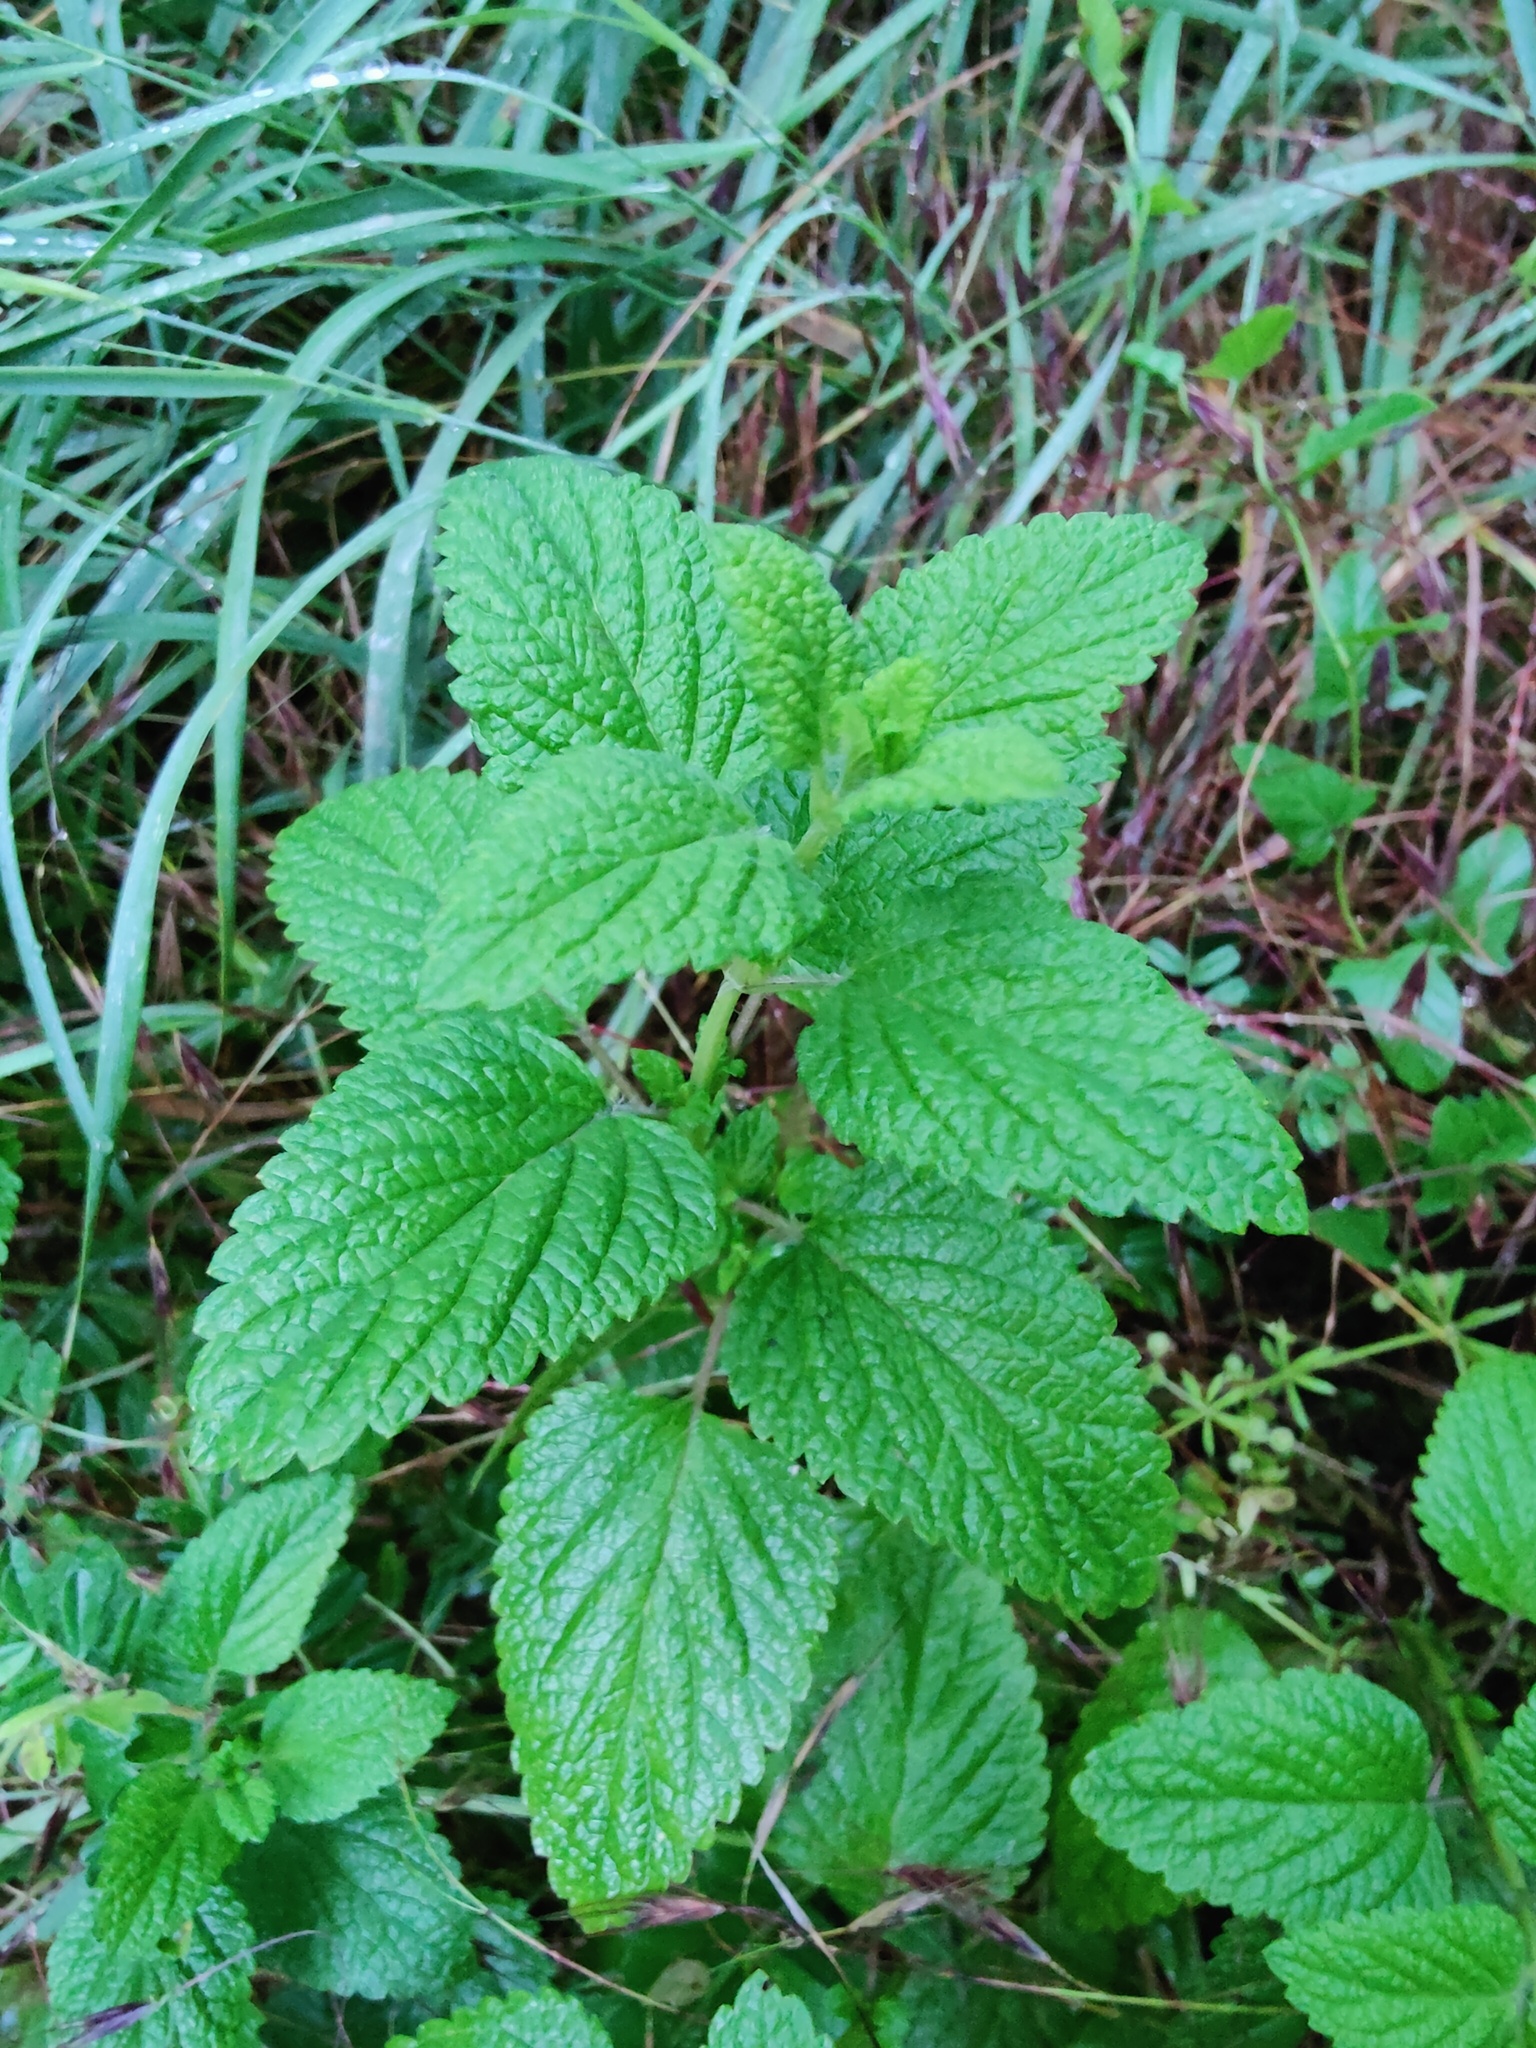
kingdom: Plantae
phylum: Tracheophyta
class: Magnoliopsida
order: Lamiales
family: Lamiaceae
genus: Melissa
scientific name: Melissa officinalis
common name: Balm
